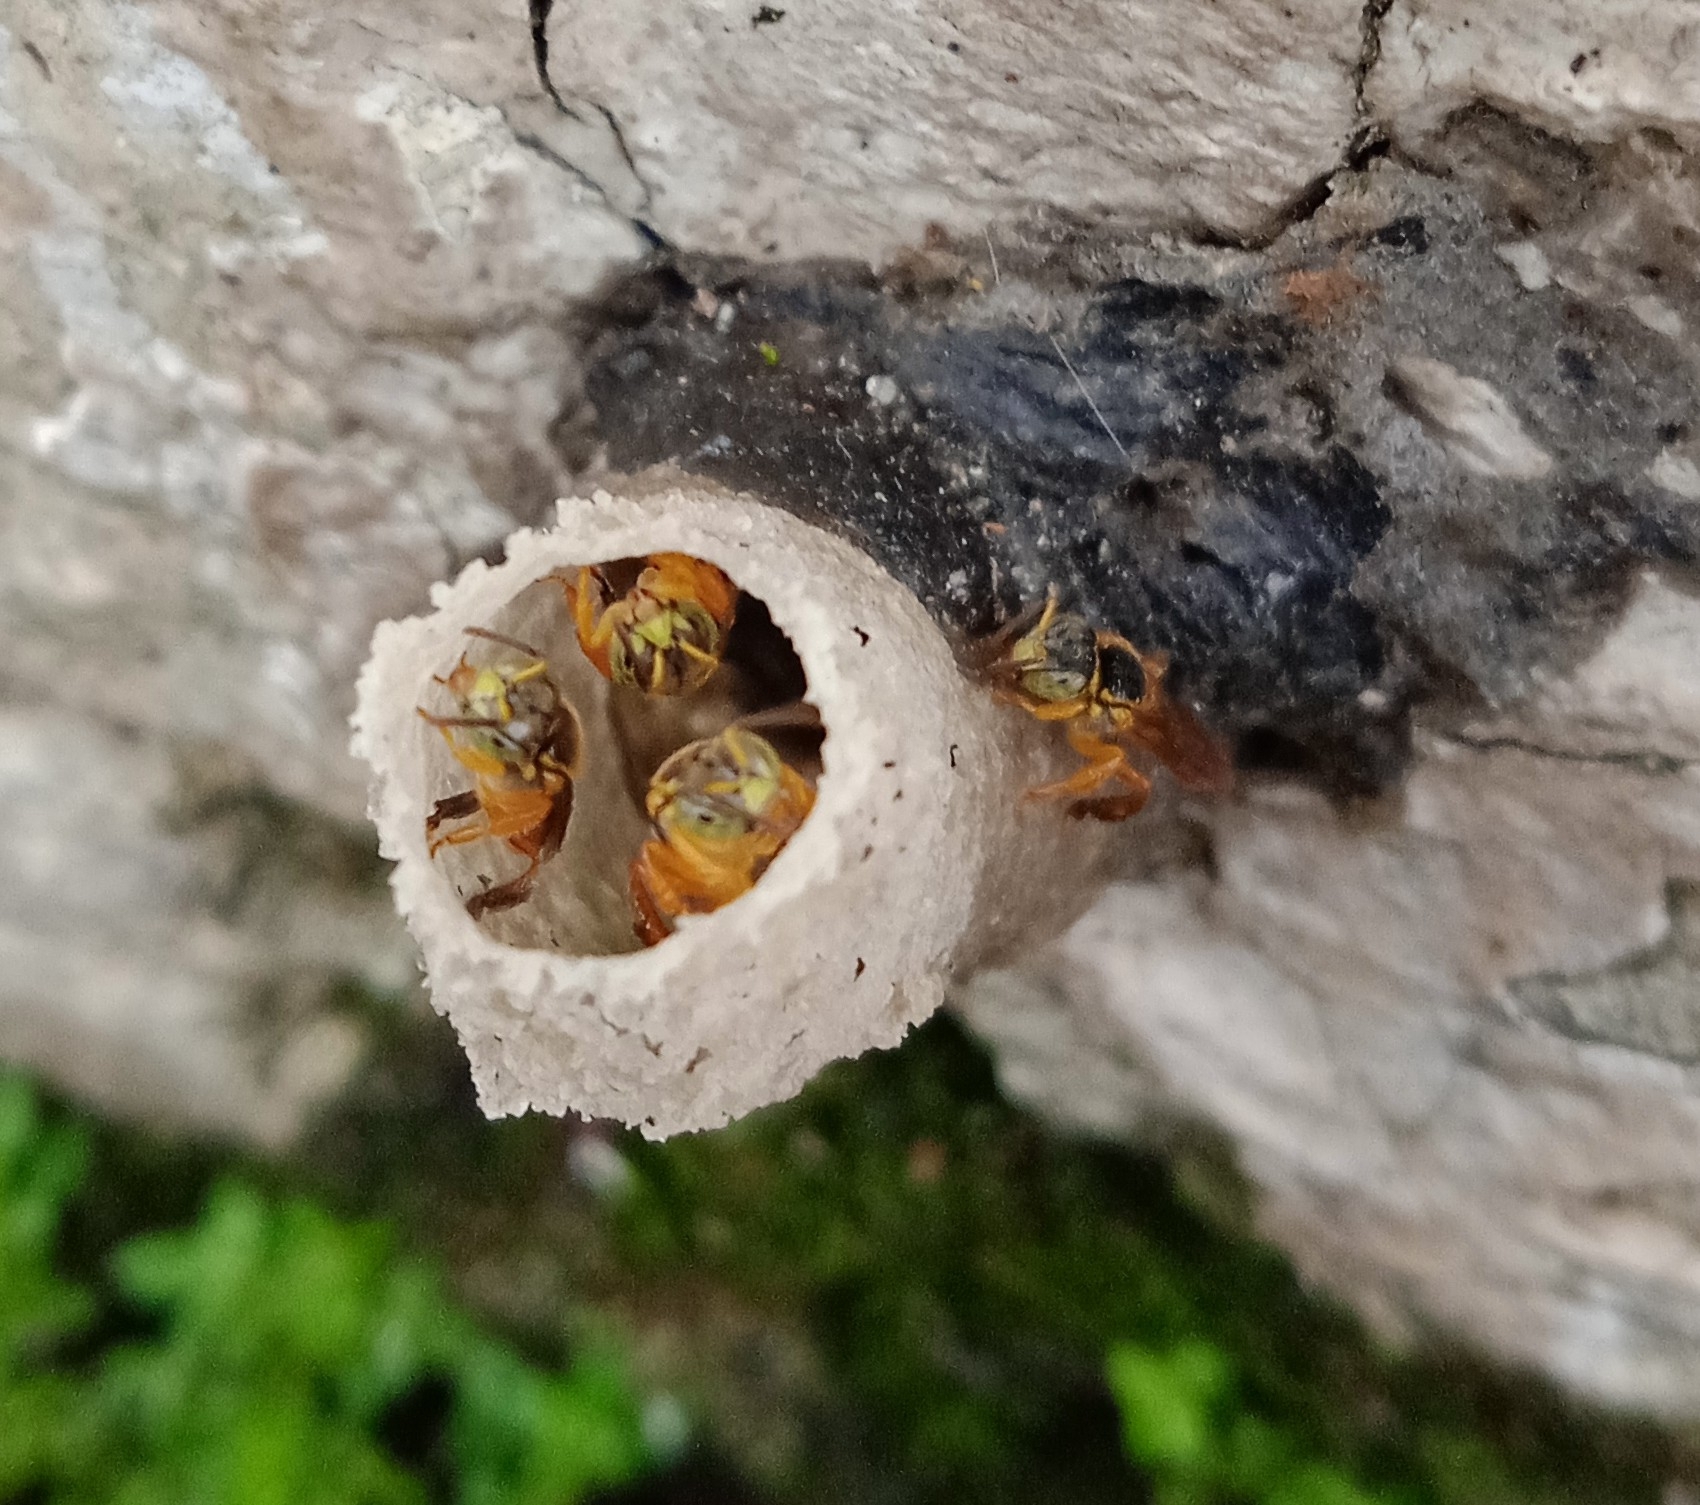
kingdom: Animalia
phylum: Arthropoda
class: Insecta
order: Hymenoptera
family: Apidae
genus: Tetragonisca
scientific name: Tetragonisca angustula
